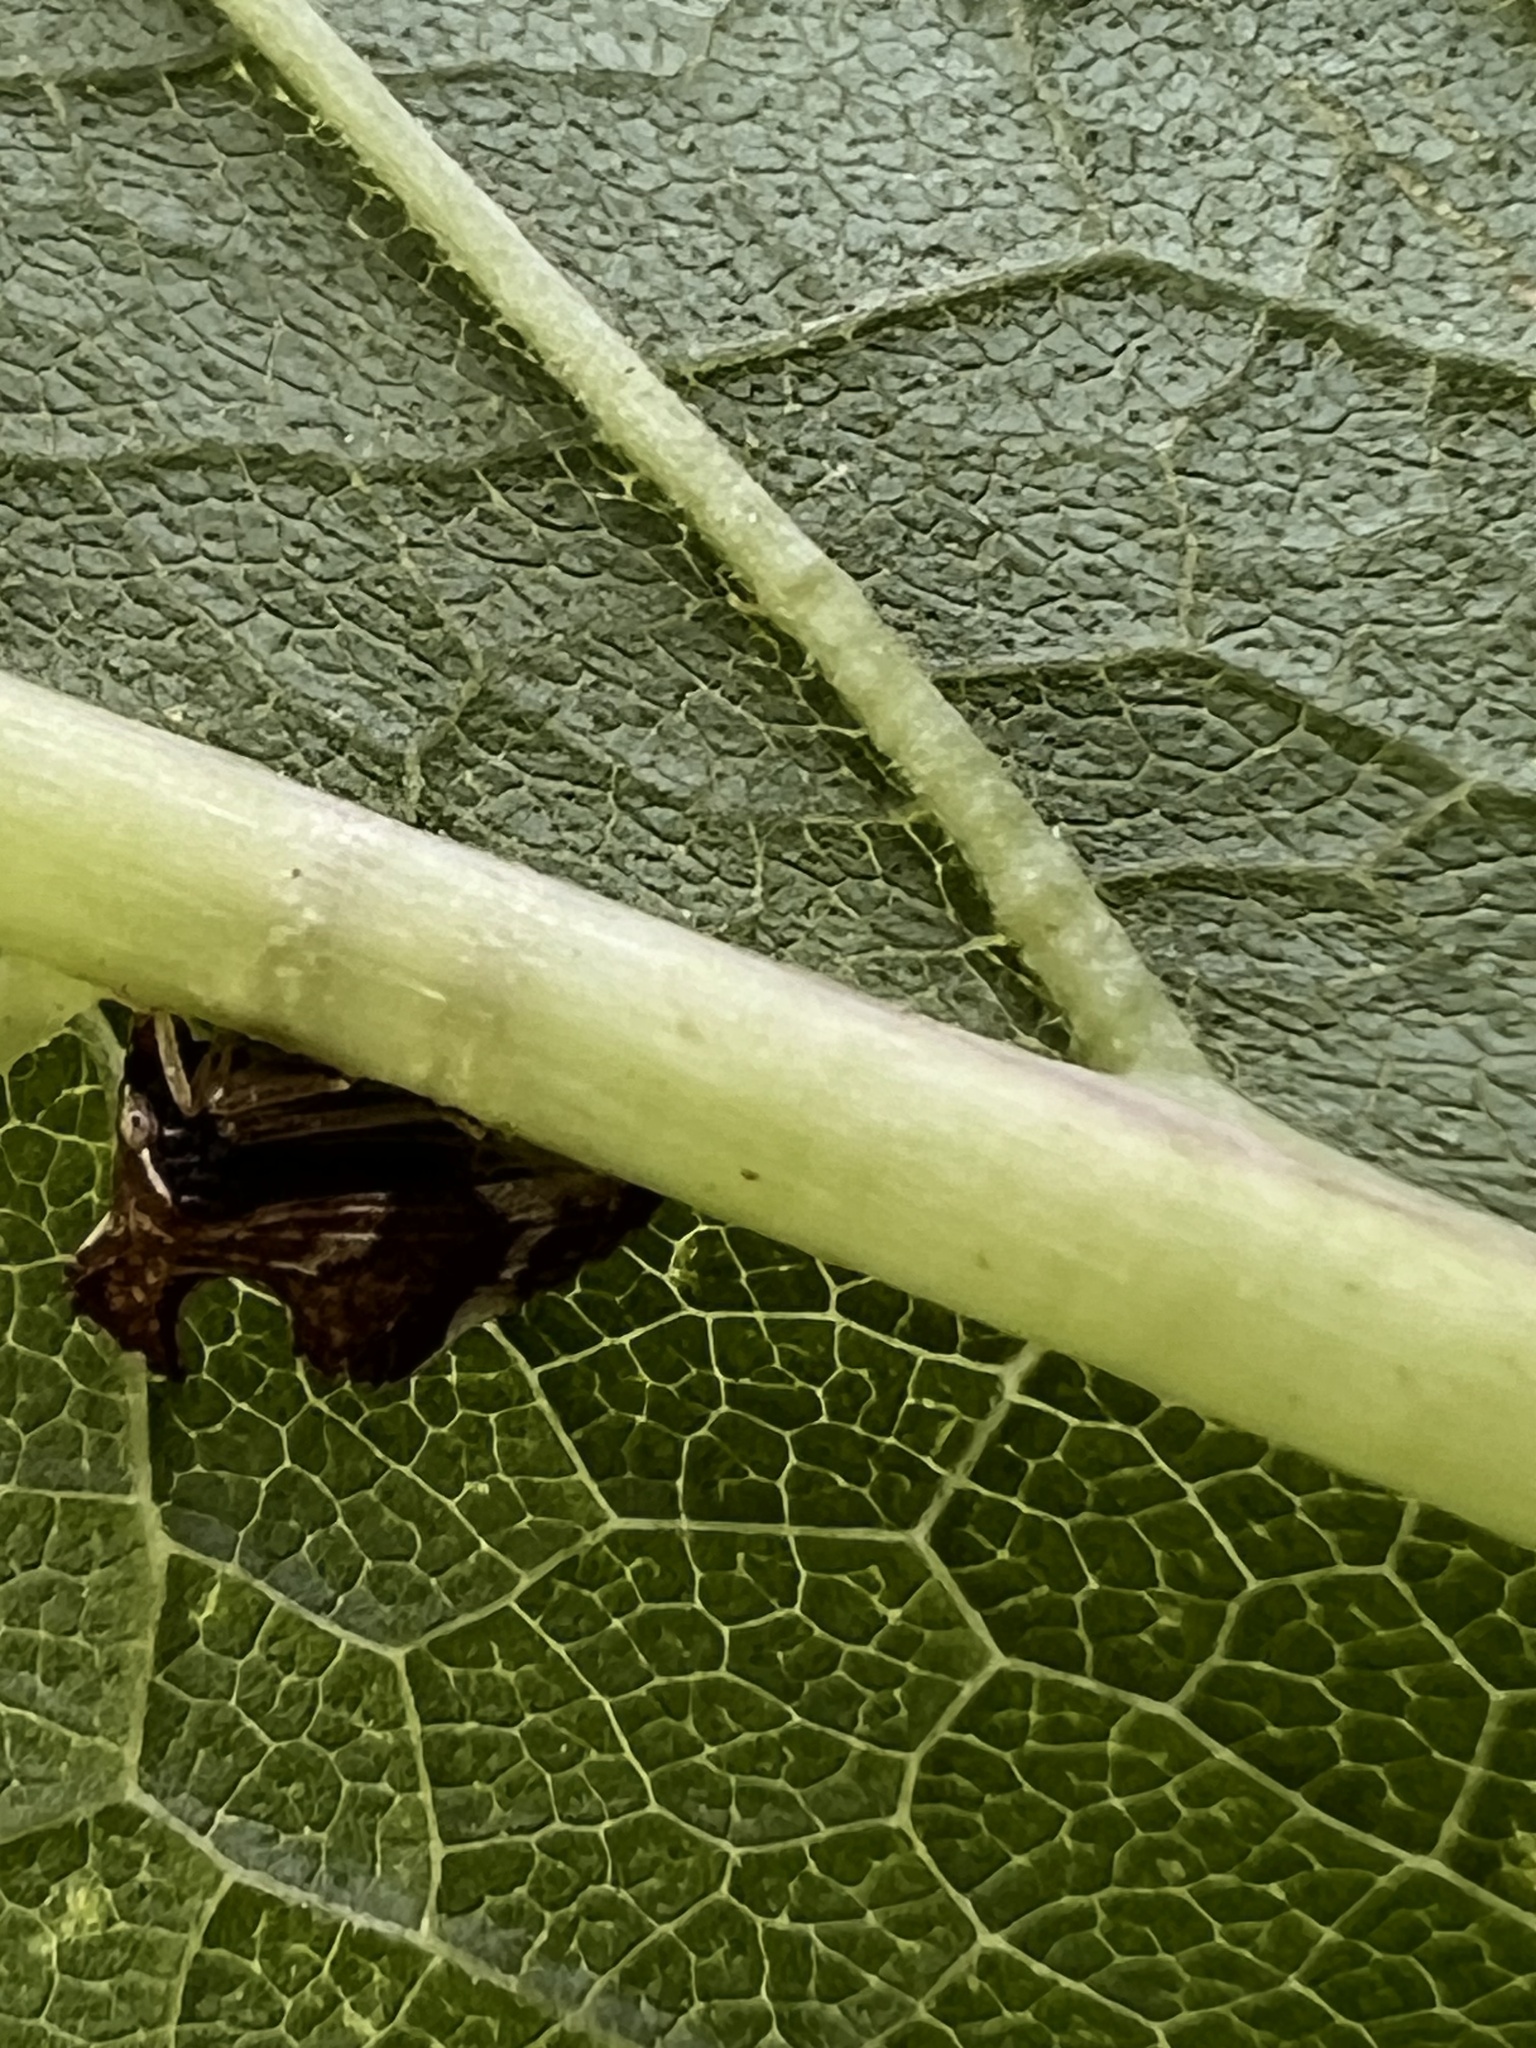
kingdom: Animalia
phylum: Arthropoda
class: Insecta
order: Hemiptera
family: Membracidae
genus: Entylia
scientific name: Entylia carinata
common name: Keeled treehopper
